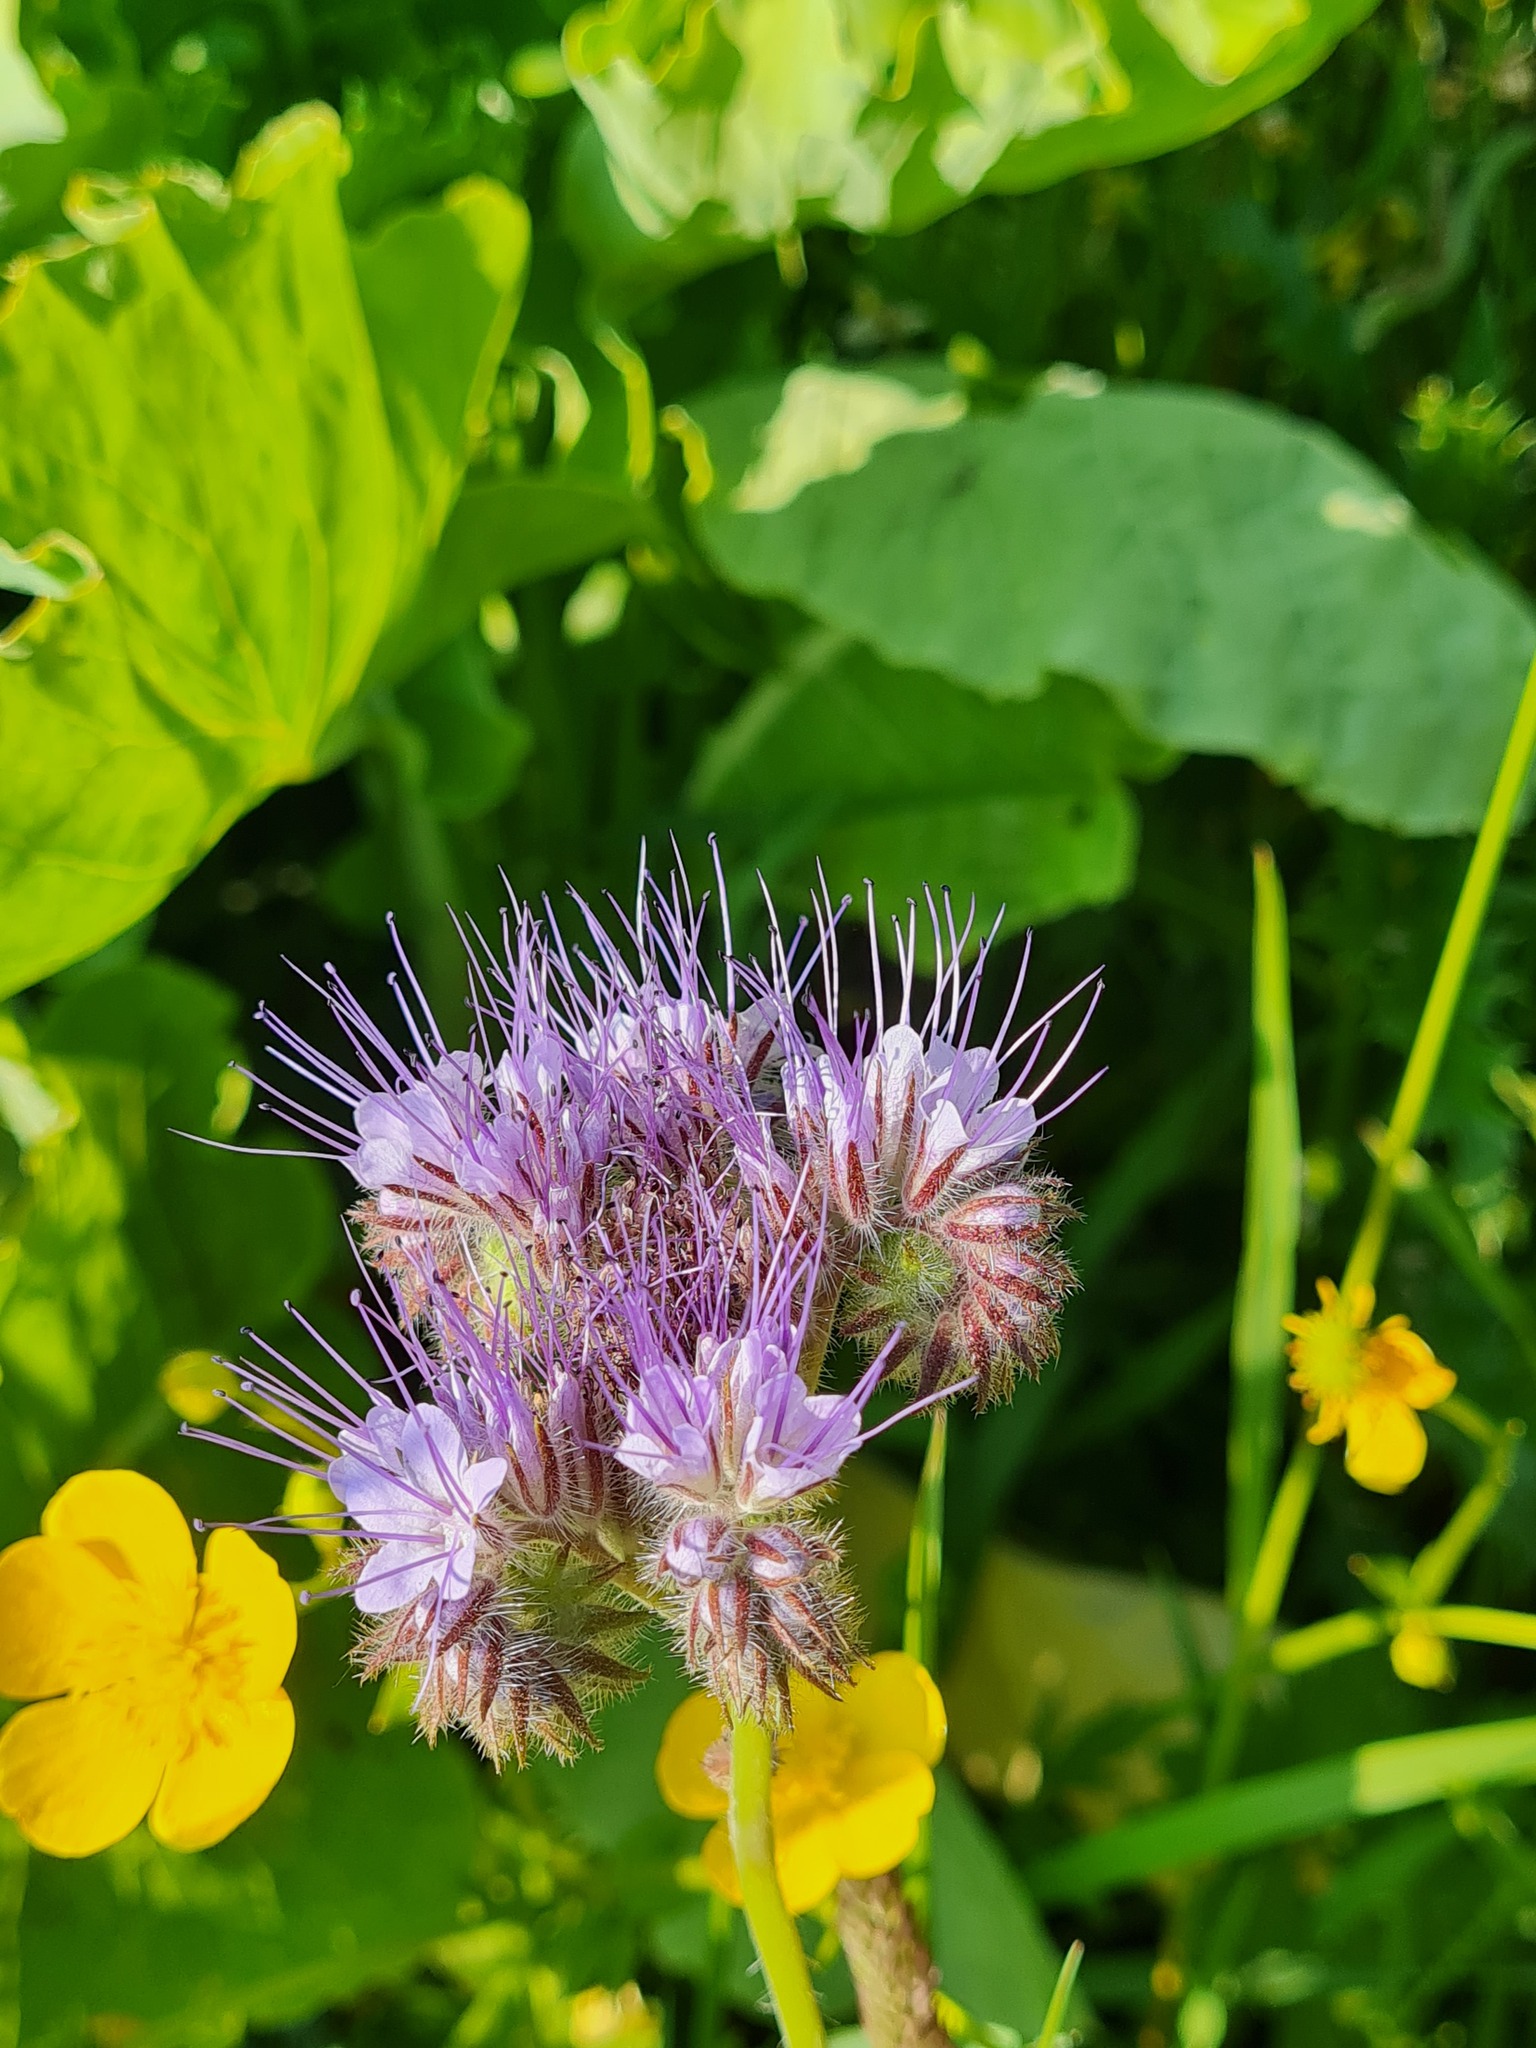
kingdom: Plantae
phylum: Tracheophyta
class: Magnoliopsida
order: Boraginales
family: Hydrophyllaceae
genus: Phacelia
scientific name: Phacelia tanacetifolia
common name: Phacelia
